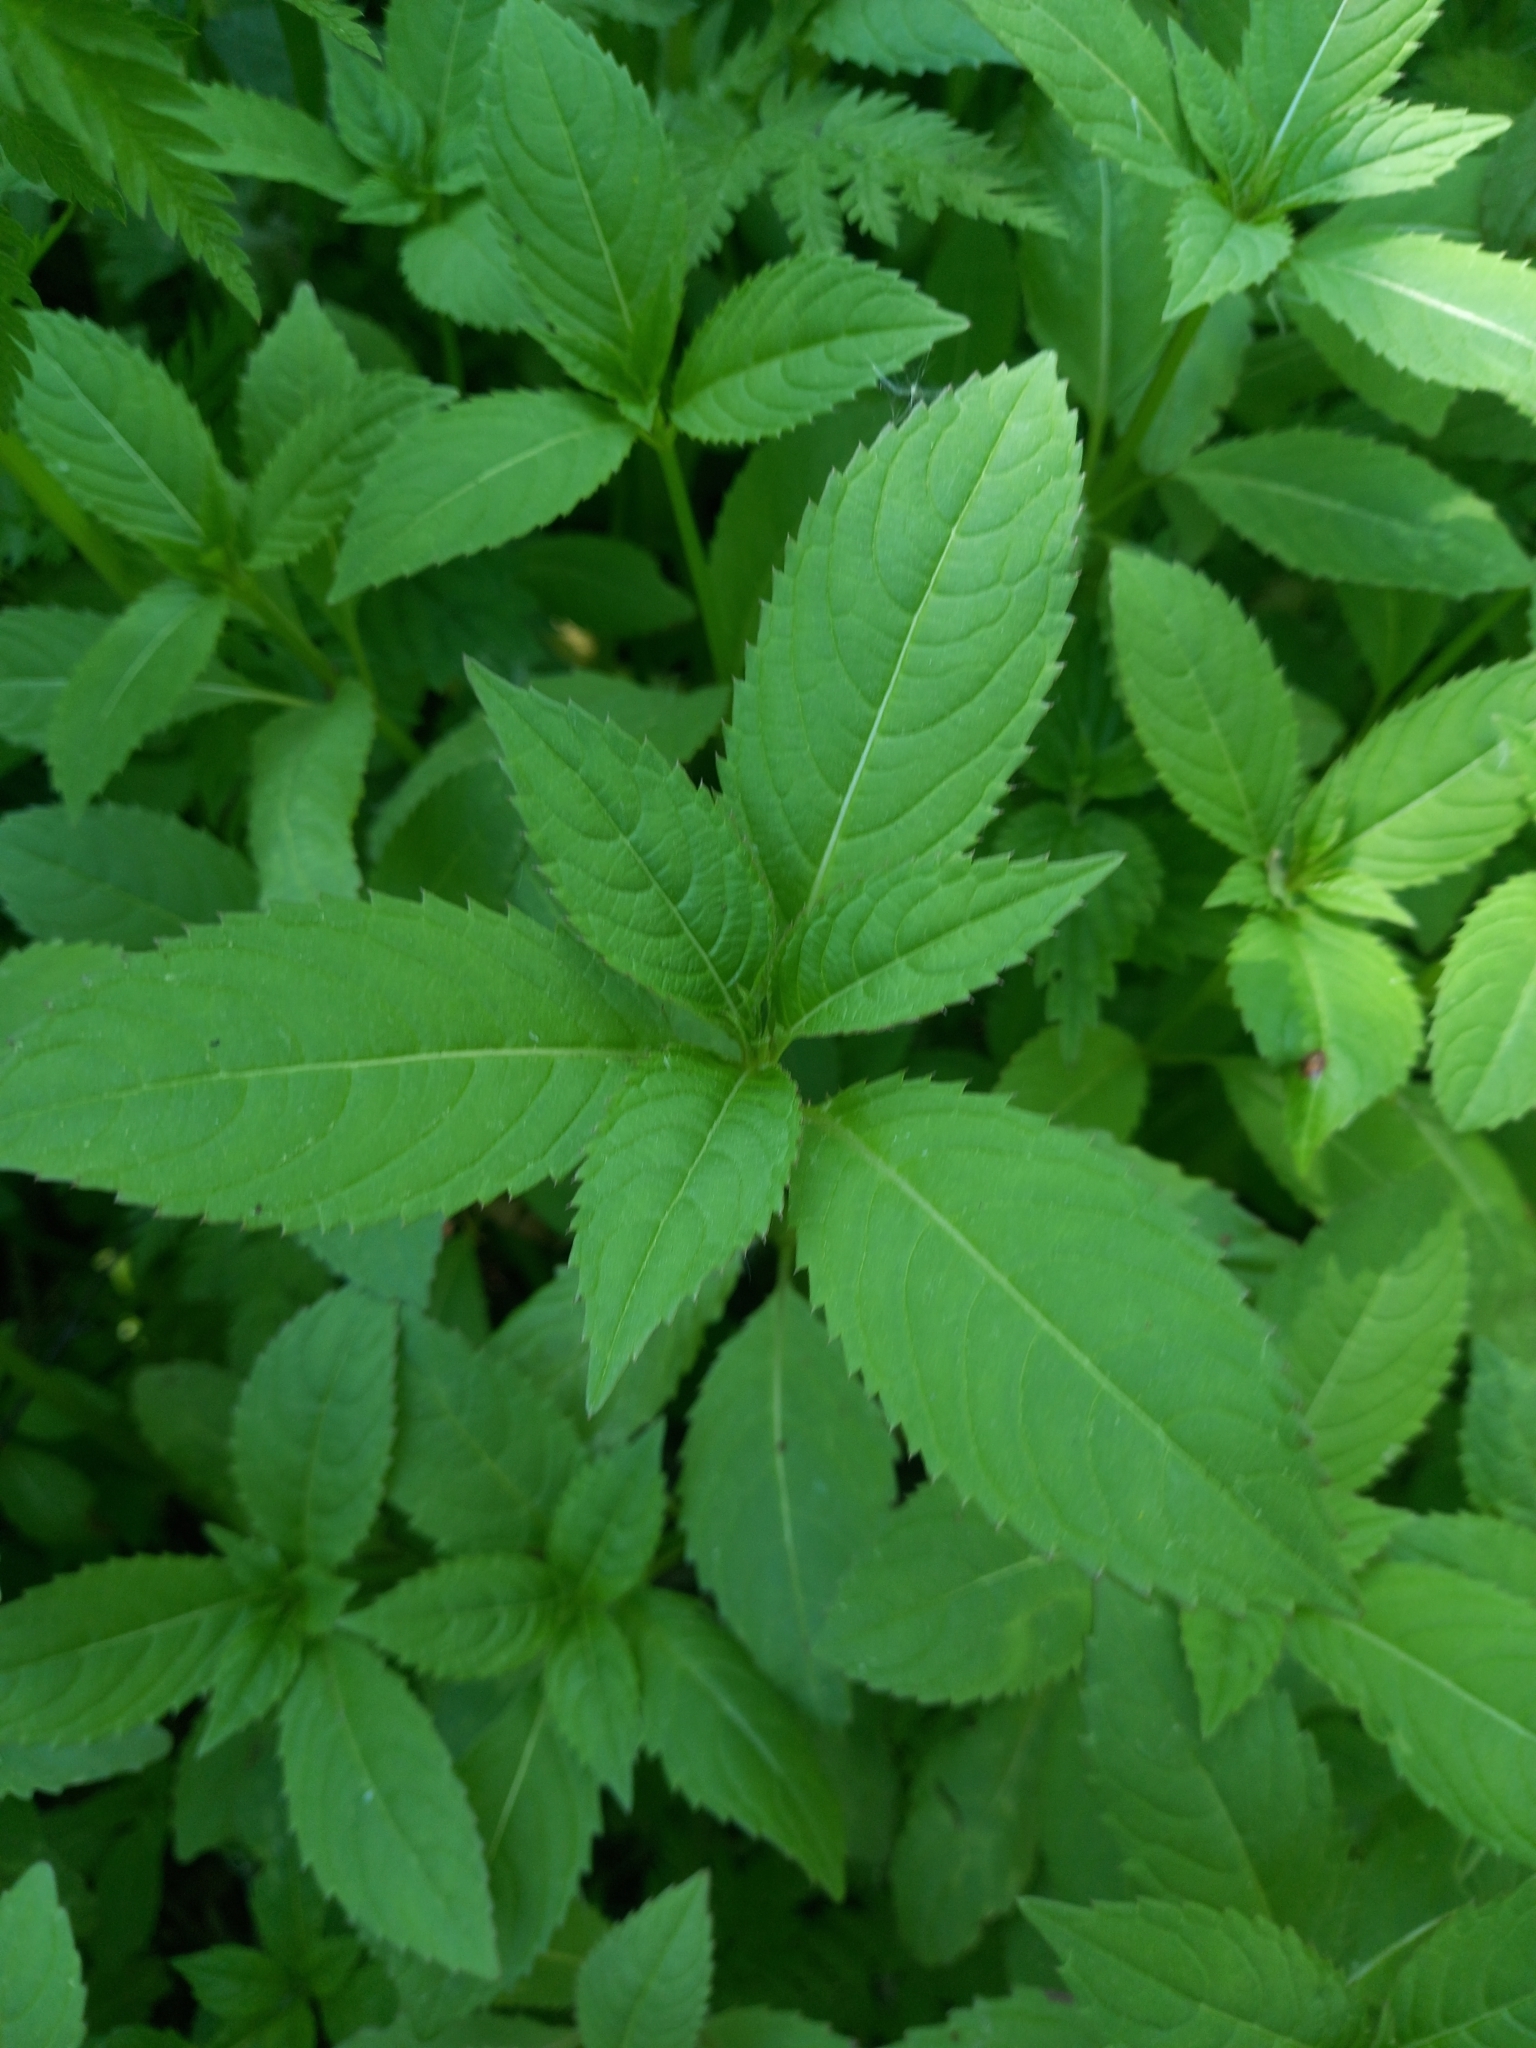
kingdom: Plantae
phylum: Tracheophyta
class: Magnoliopsida
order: Ericales
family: Balsaminaceae
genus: Impatiens
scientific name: Impatiens glandulifera
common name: Himalayan balsam
